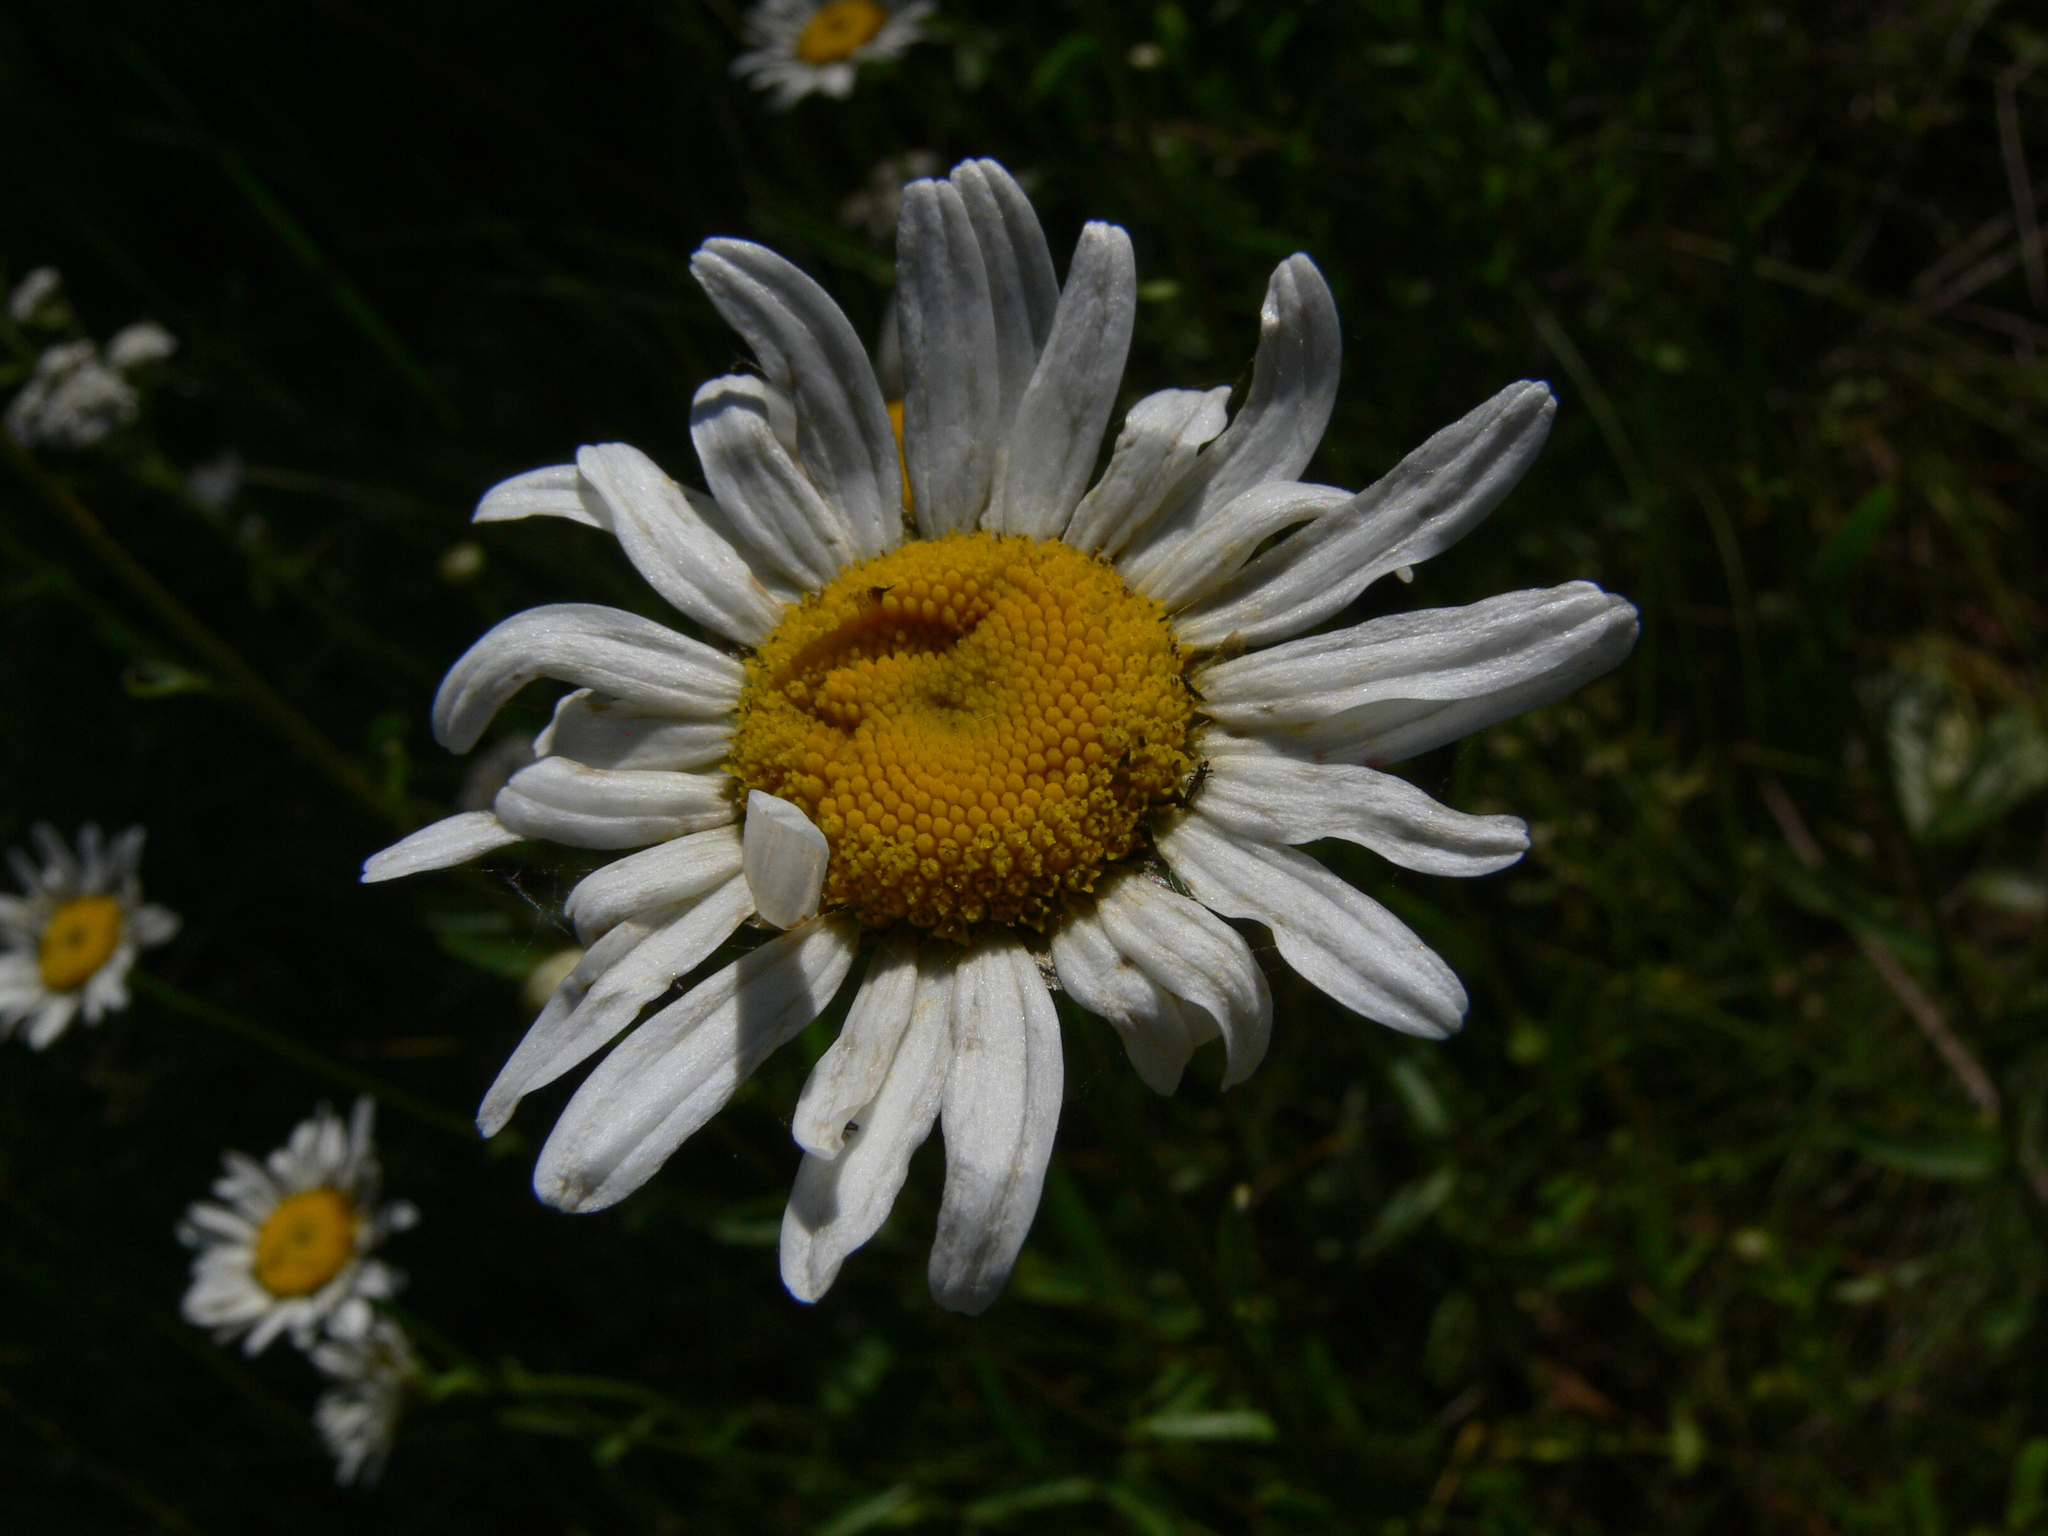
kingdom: Plantae
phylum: Tracheophyta
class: Magnoliopsida
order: Asterales
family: Asteraceae
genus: Leucanthemum
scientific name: Leucanthemum vulgare
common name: Oxeye daisy
